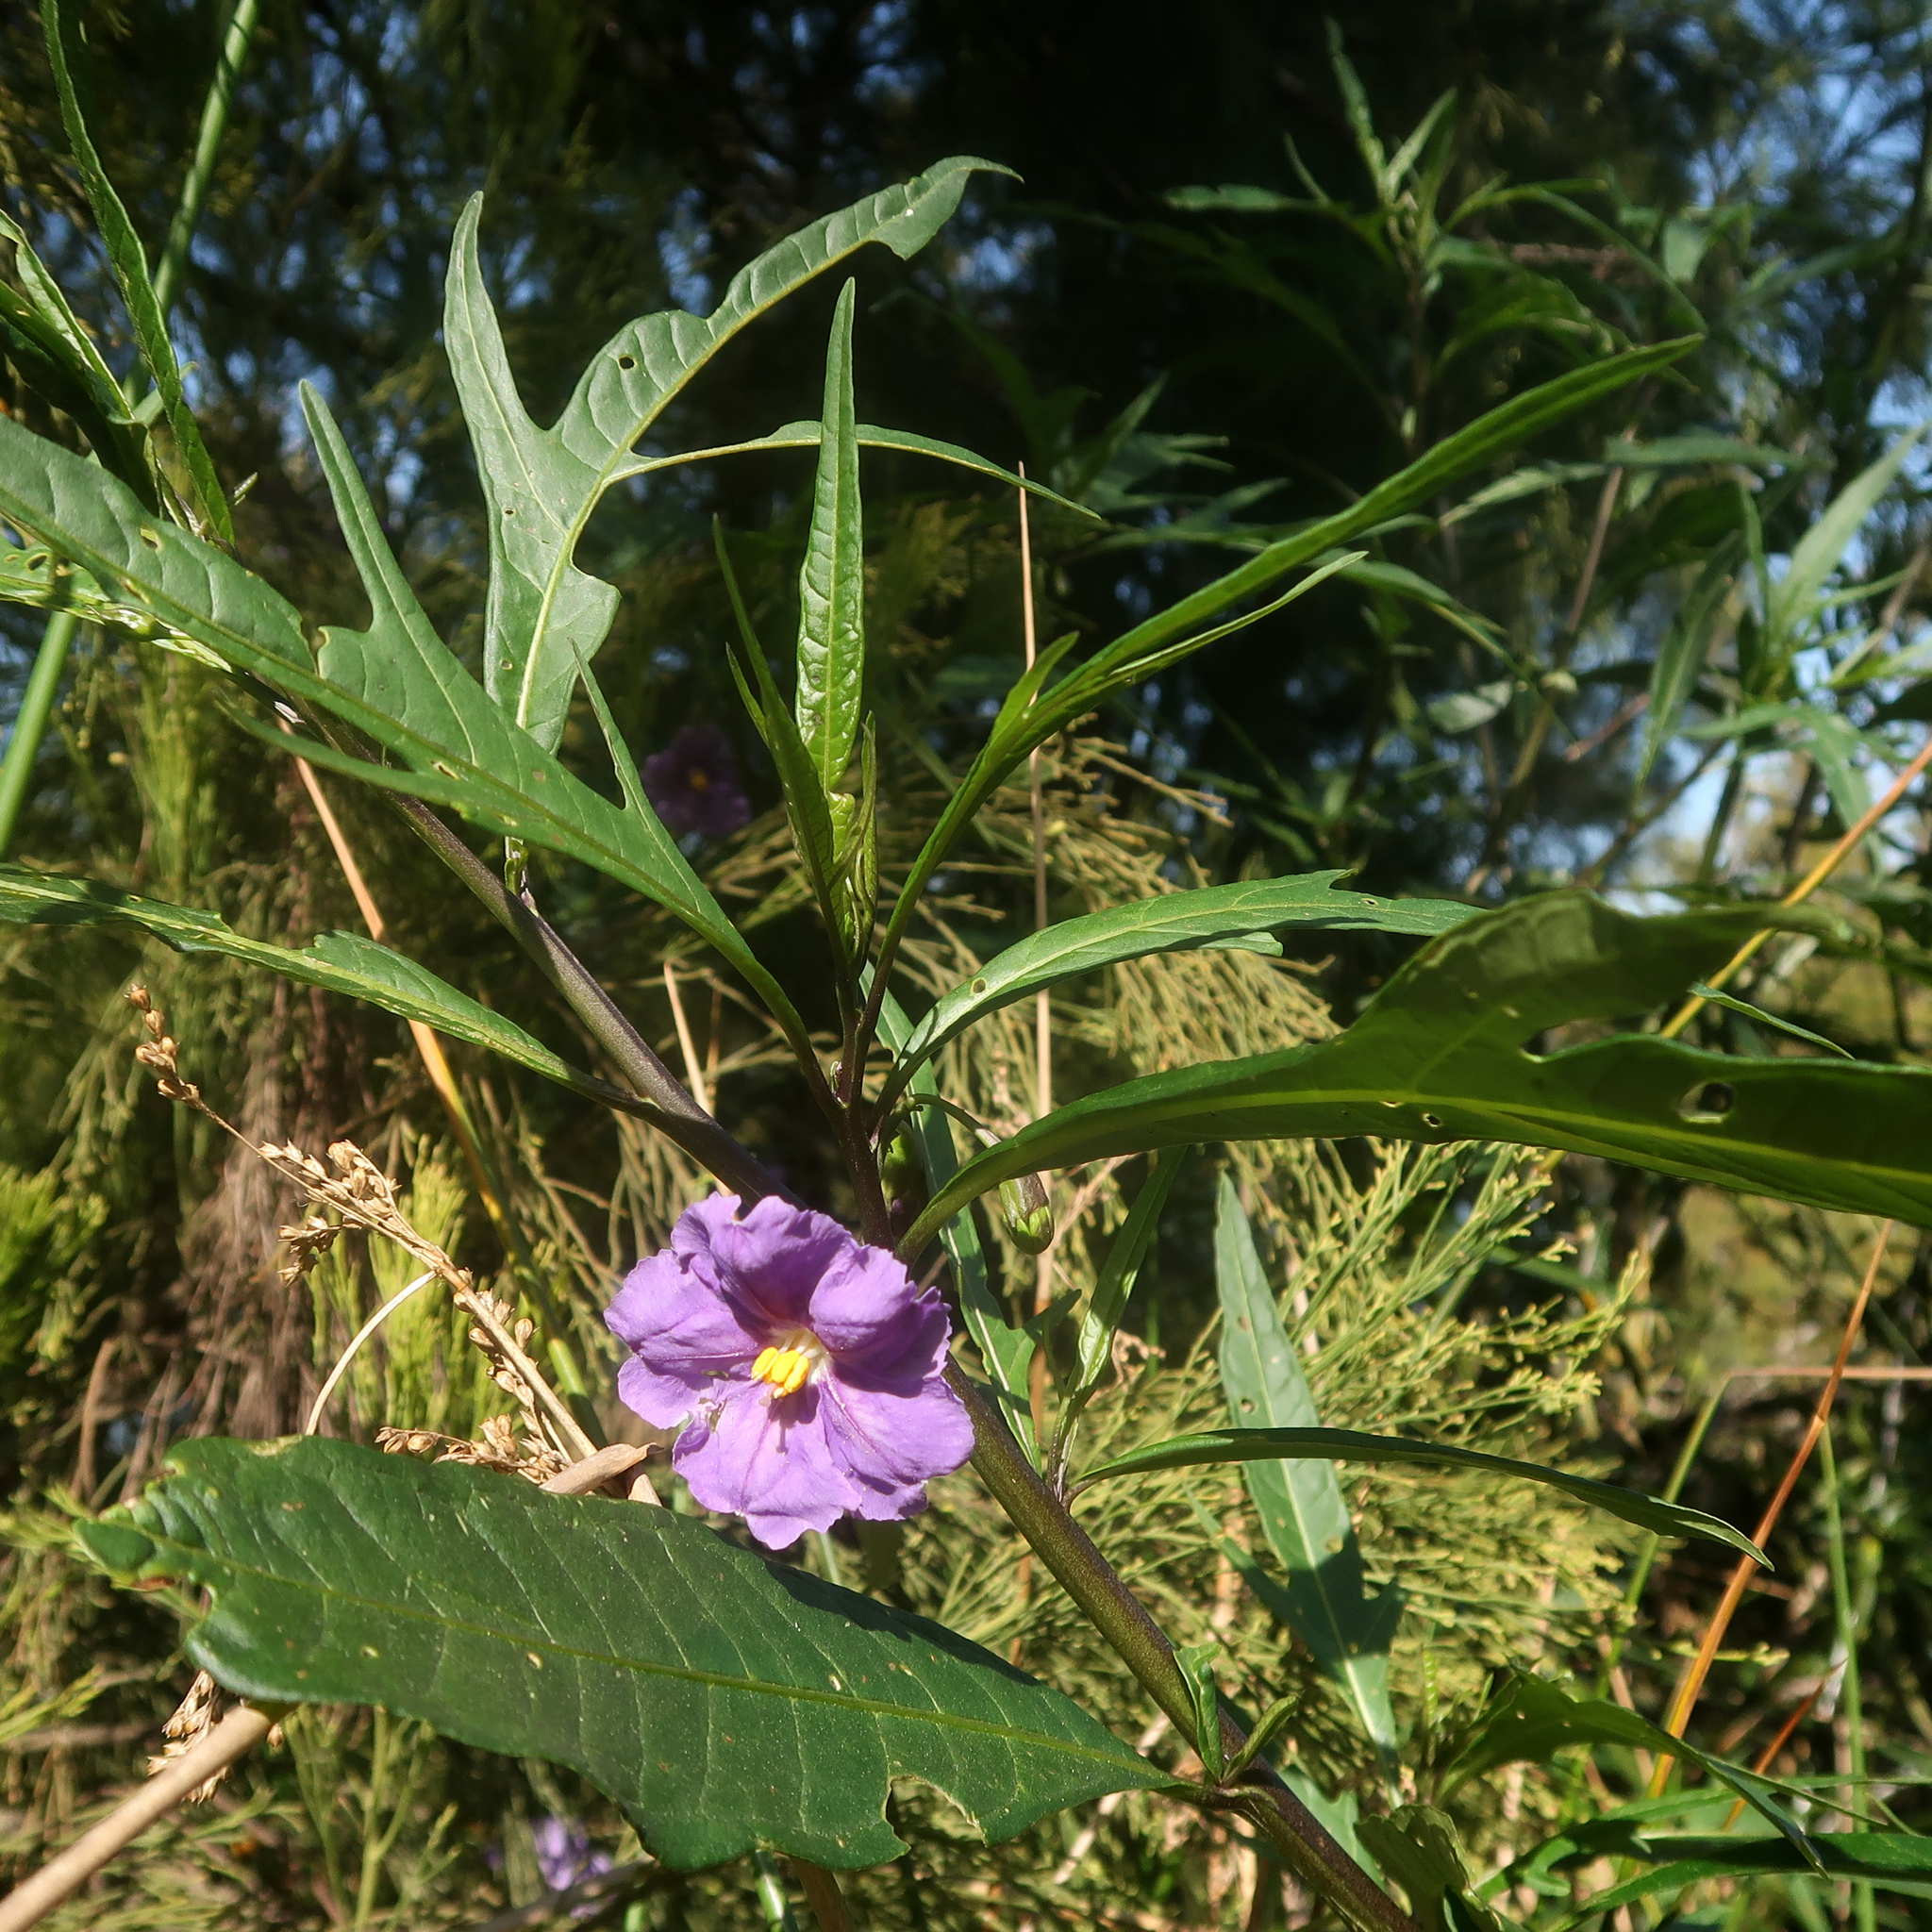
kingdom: Plantae
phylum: Tracheophyta
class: Magnoliopsida
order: Solanales
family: Solanaceae
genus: Solanum
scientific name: Solanum laciniatum
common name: Kangaroo-apple
